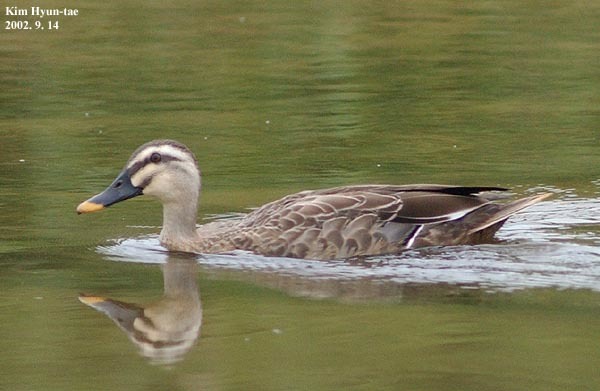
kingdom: Animalia
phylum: Chordata
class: Aves
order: Anseriformes
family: Anatidae
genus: Anas
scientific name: Anas zonorhyncha
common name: Eastern spot-billed duck
